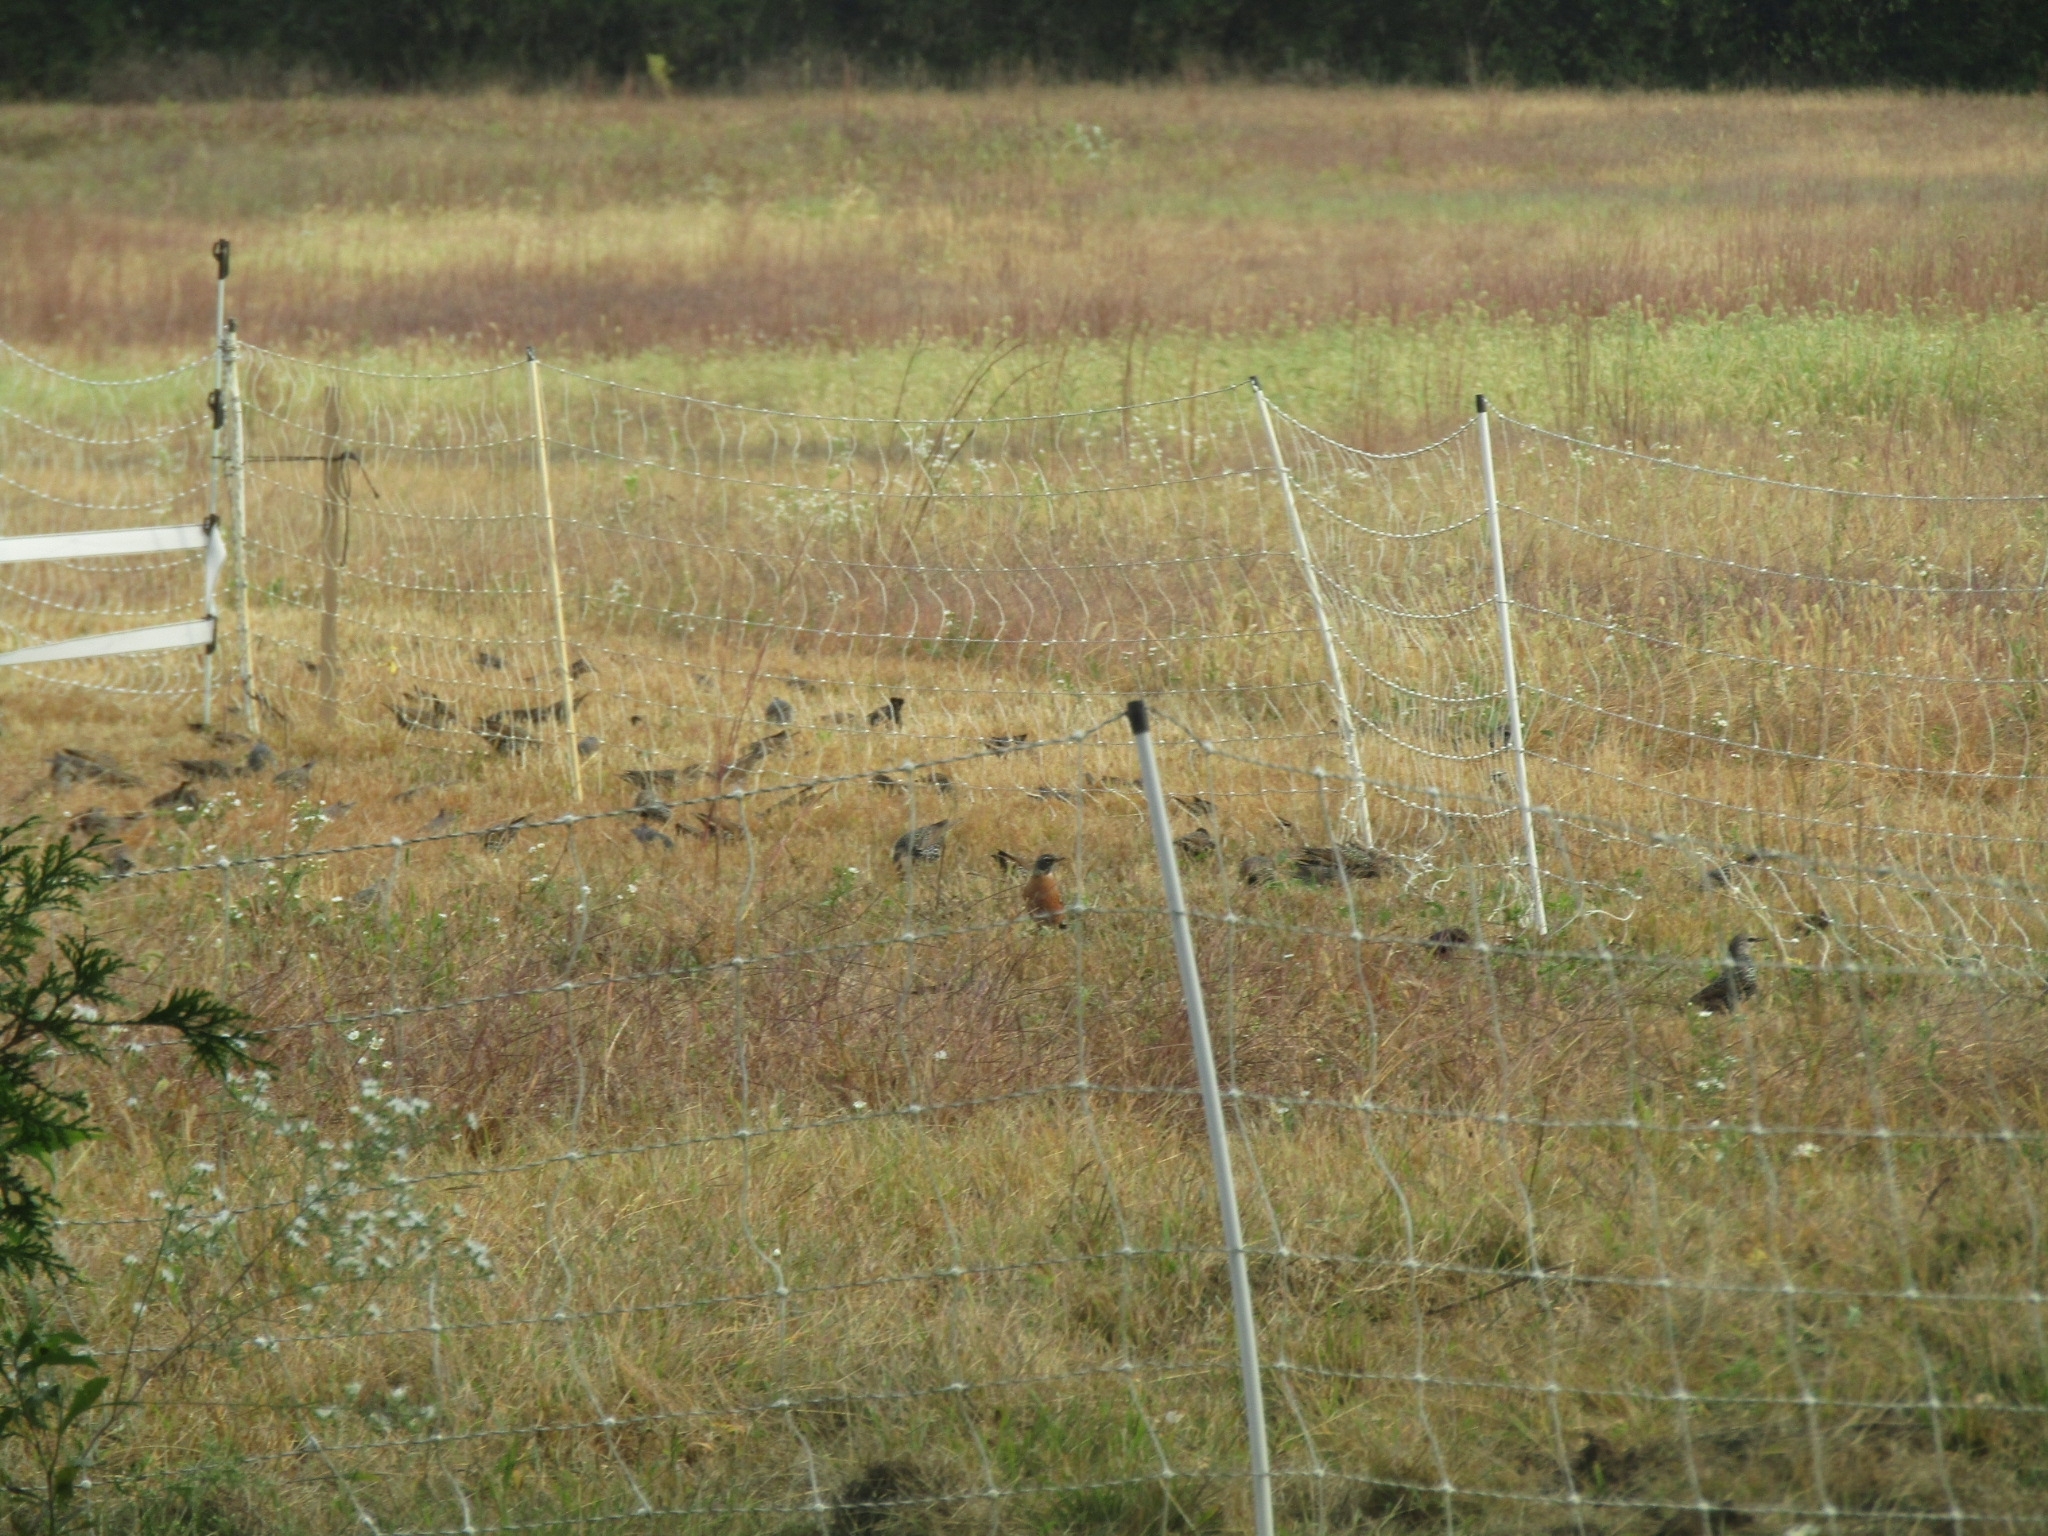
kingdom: Animalia
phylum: Chordata
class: Aves
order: Passeriformes
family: Sturnidae
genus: Sturnus
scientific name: Sturnus vulgaris
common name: Common starling
